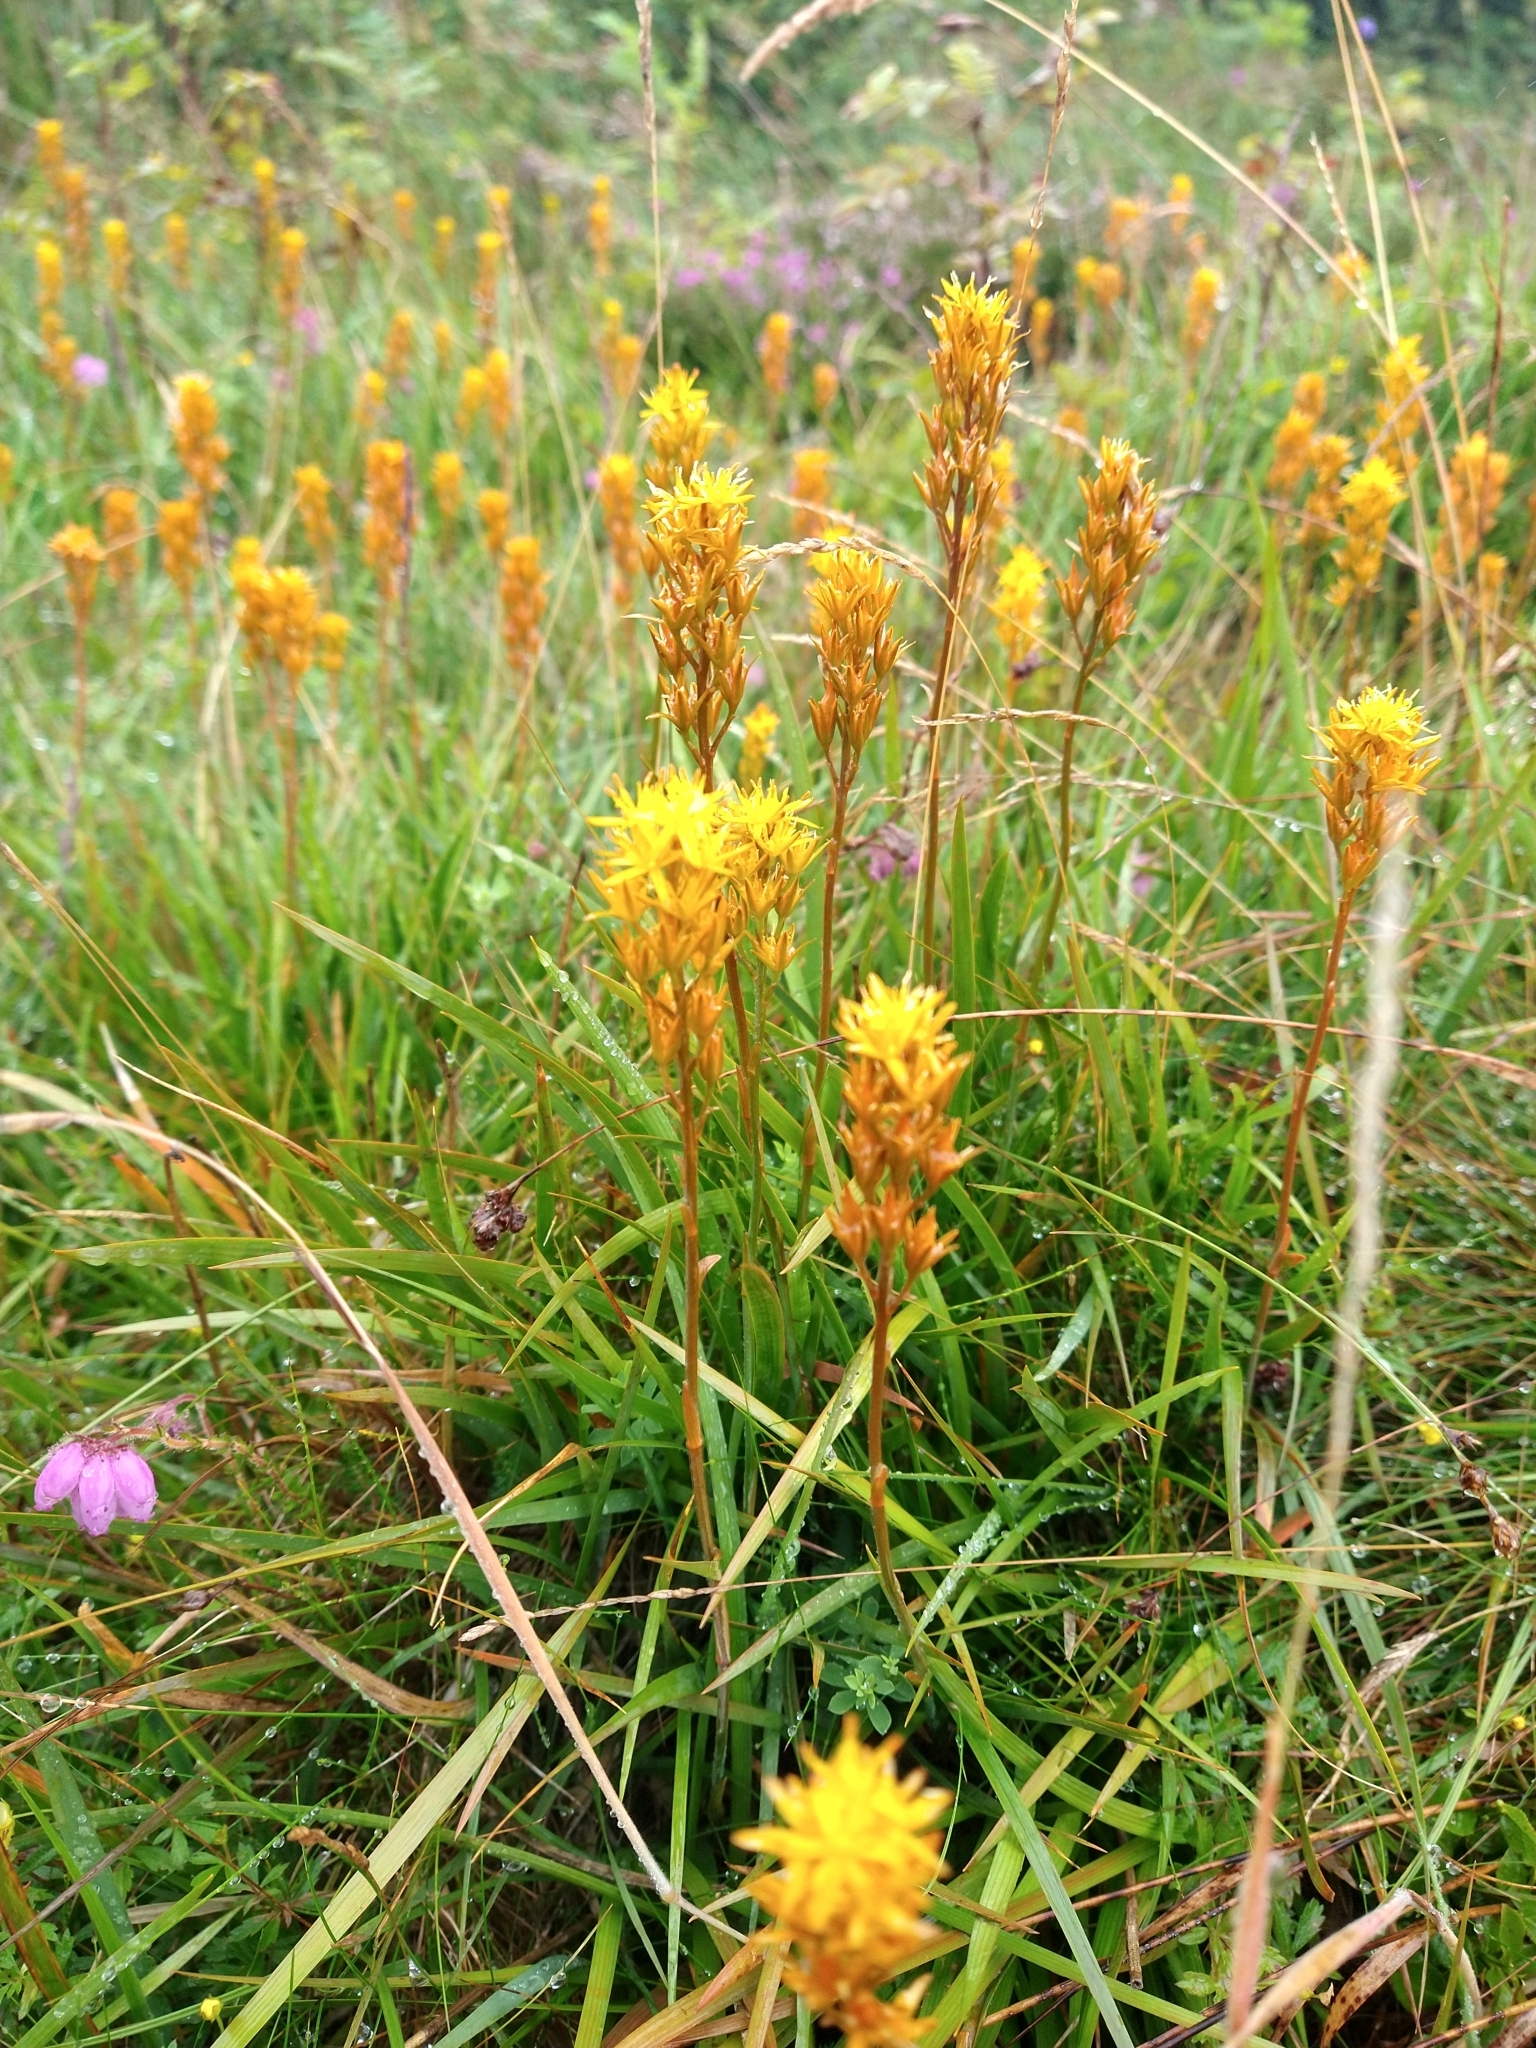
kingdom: Plantae
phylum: Tracheophyta
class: Liliopsida
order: Dioscoreales
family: Nartheciaceae
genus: Narthecium
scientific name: Narthecium ossifragum
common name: Bog asphodel
